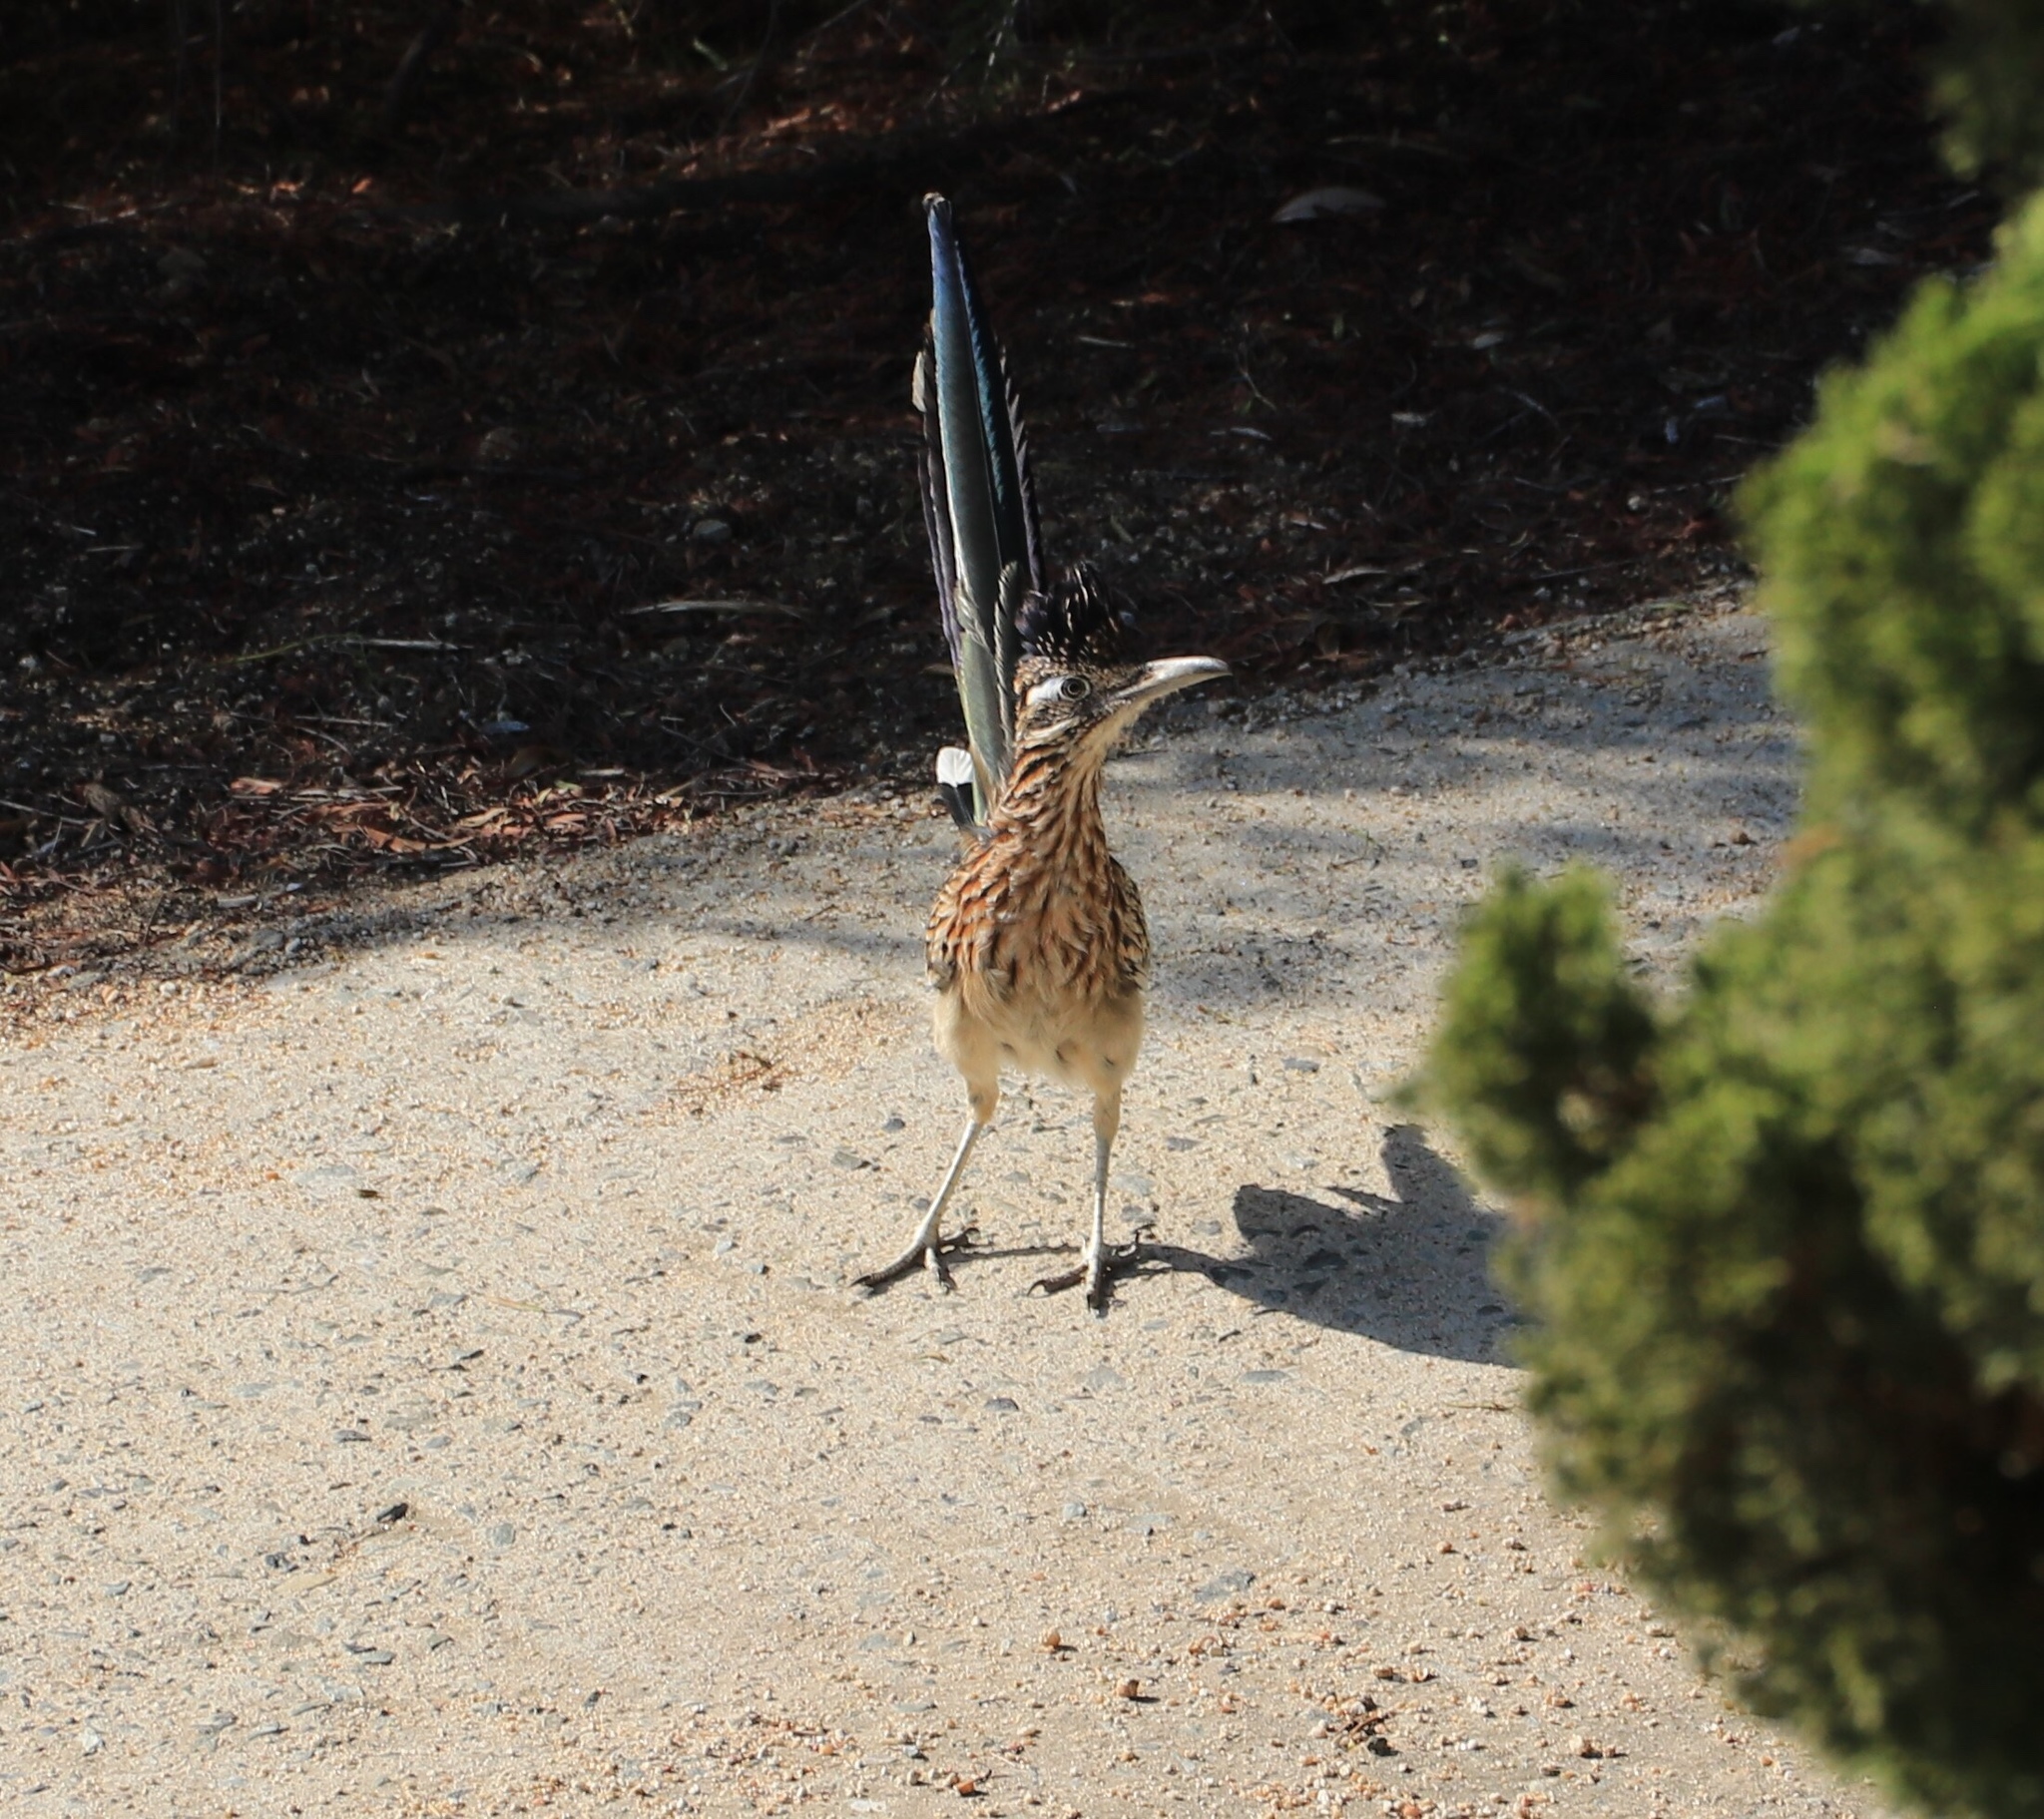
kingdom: Animalia
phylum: Chordata
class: Aves
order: Cuculiformes
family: Cuculidae
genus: Geococcyx
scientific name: Geococcyx californianus
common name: Greater roadrunner
